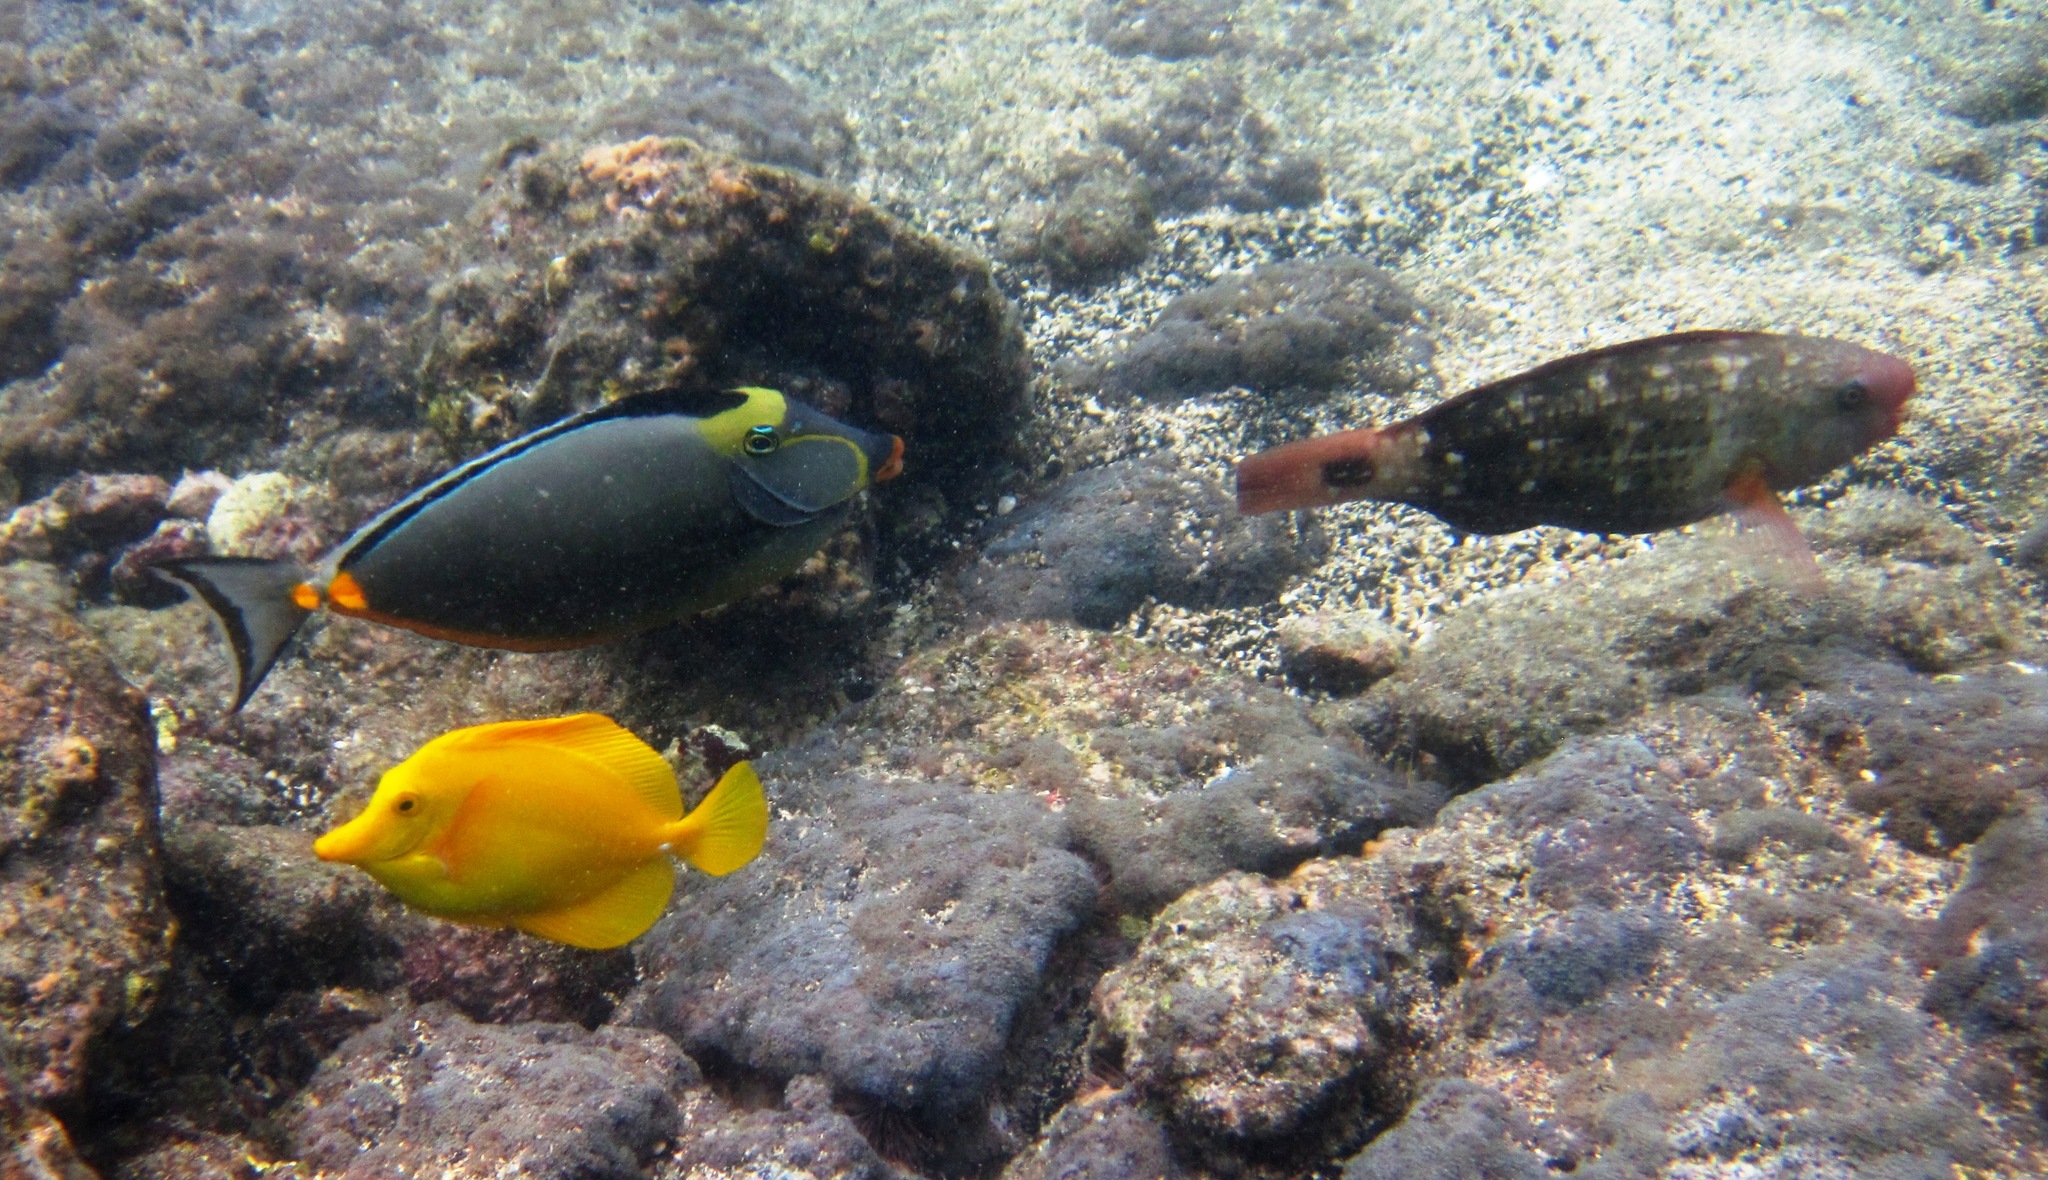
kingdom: Animalia
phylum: Chordata
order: Perciformes
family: Acanthuridae
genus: Naso
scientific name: Naso lituratus
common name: Orangespine unicornfish
